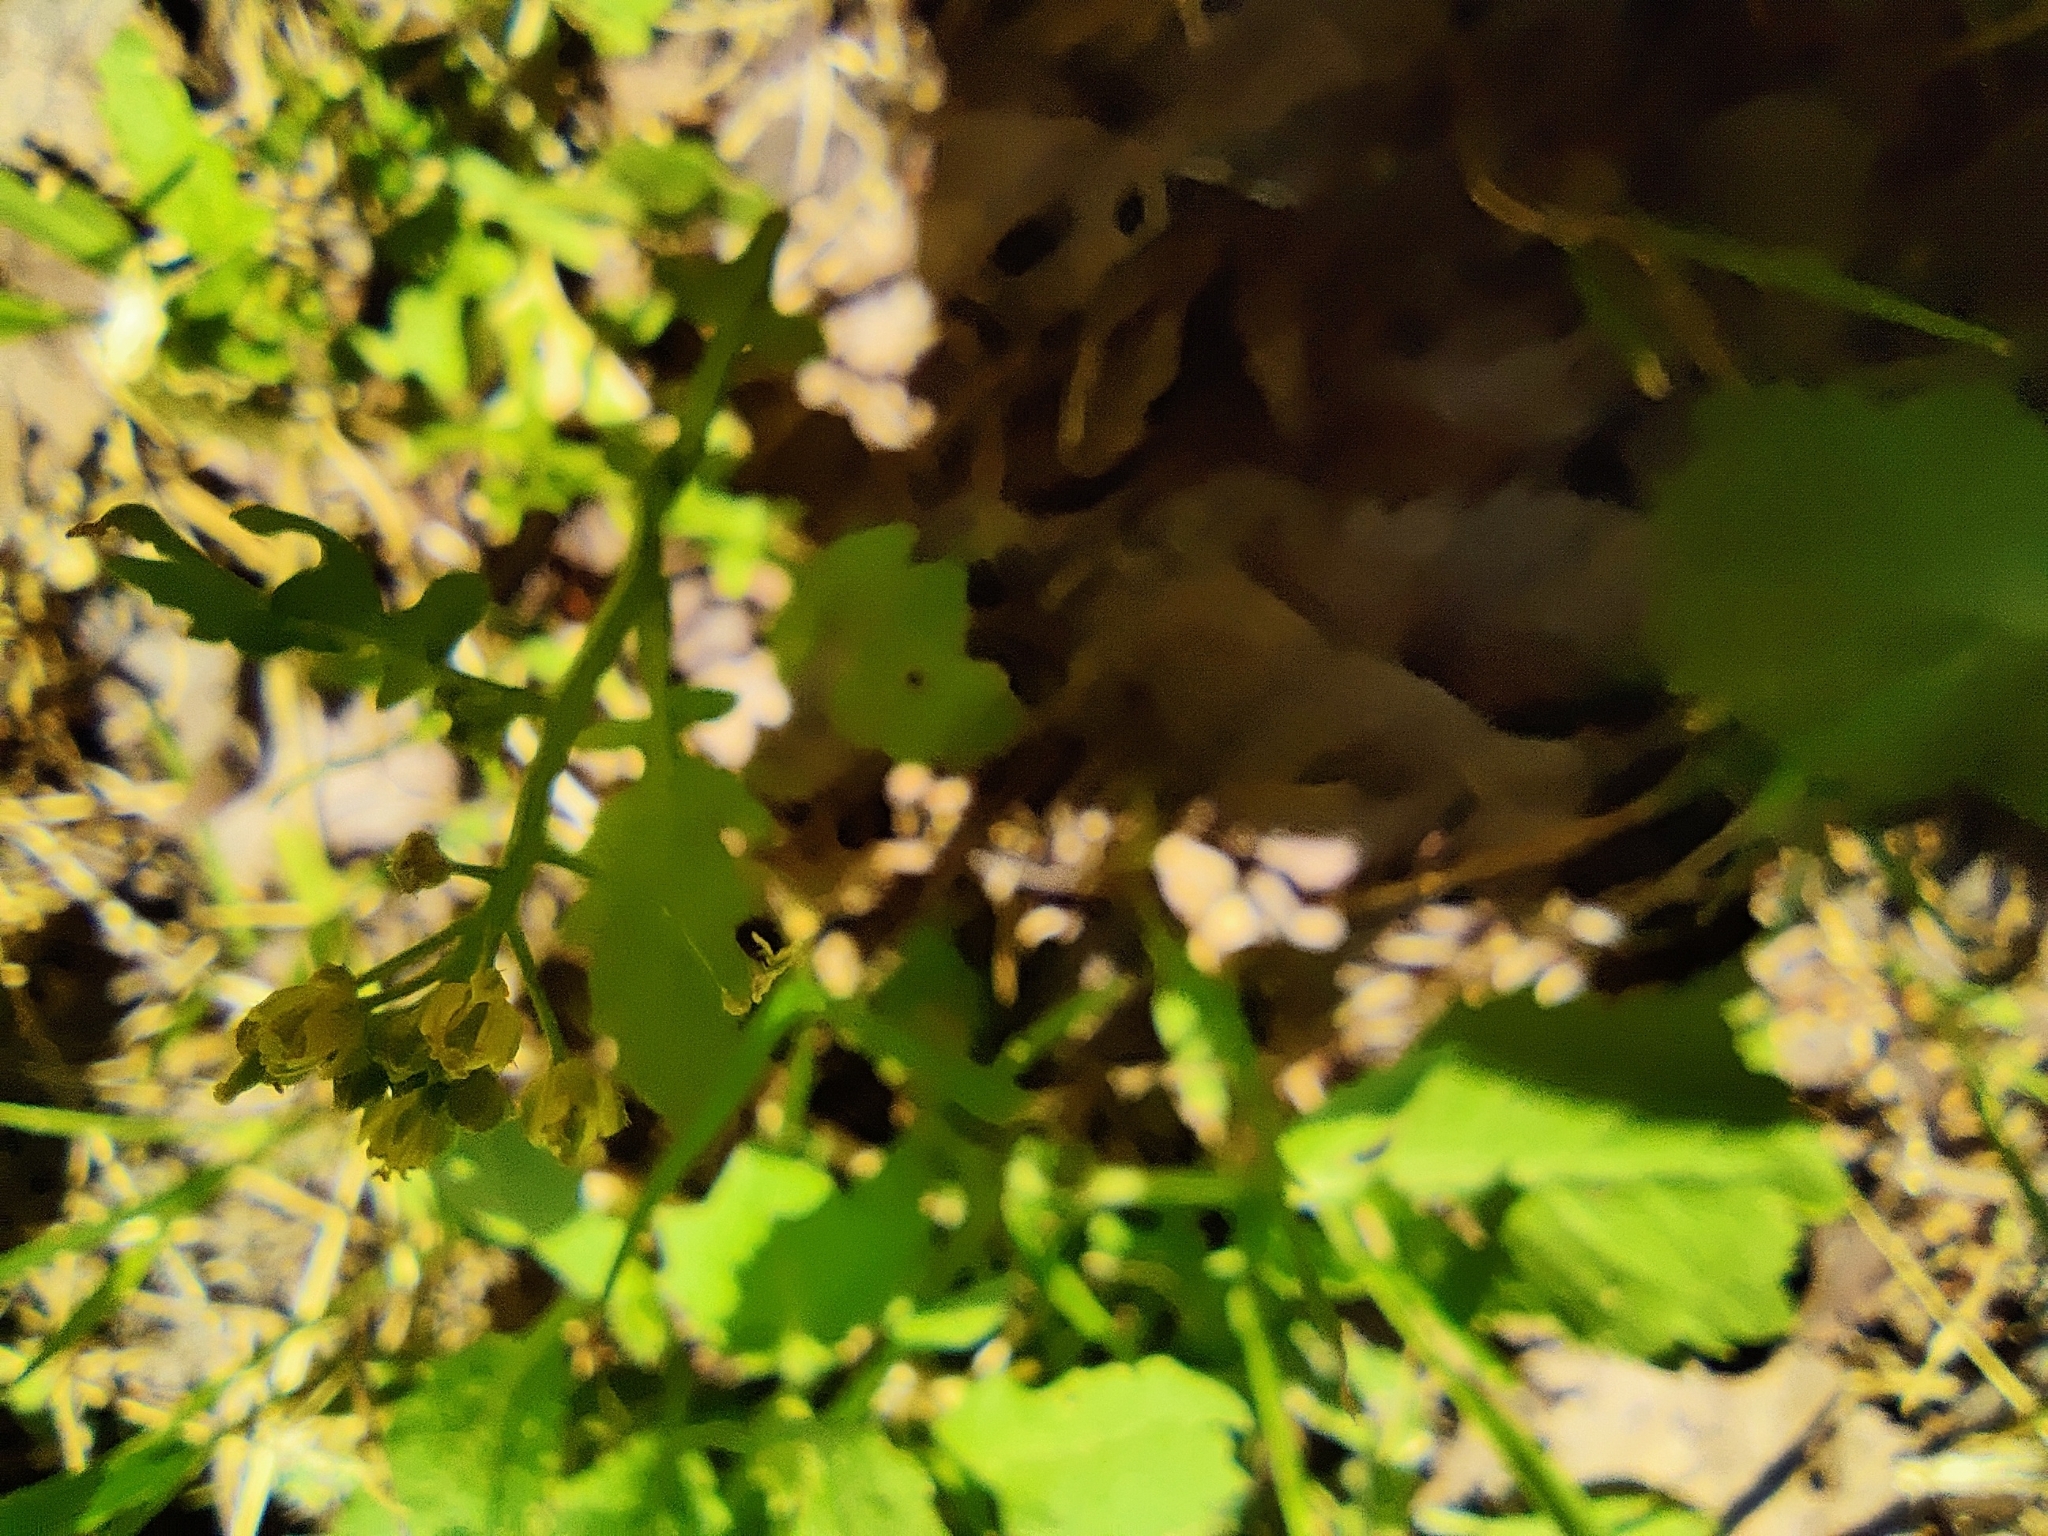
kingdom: Plantae
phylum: Tracheophyta
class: Magnoliopsida
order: Brassicales
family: Brassicaceae
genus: Rorippa
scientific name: Rorippa palustris
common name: Marsh yellow-cress
